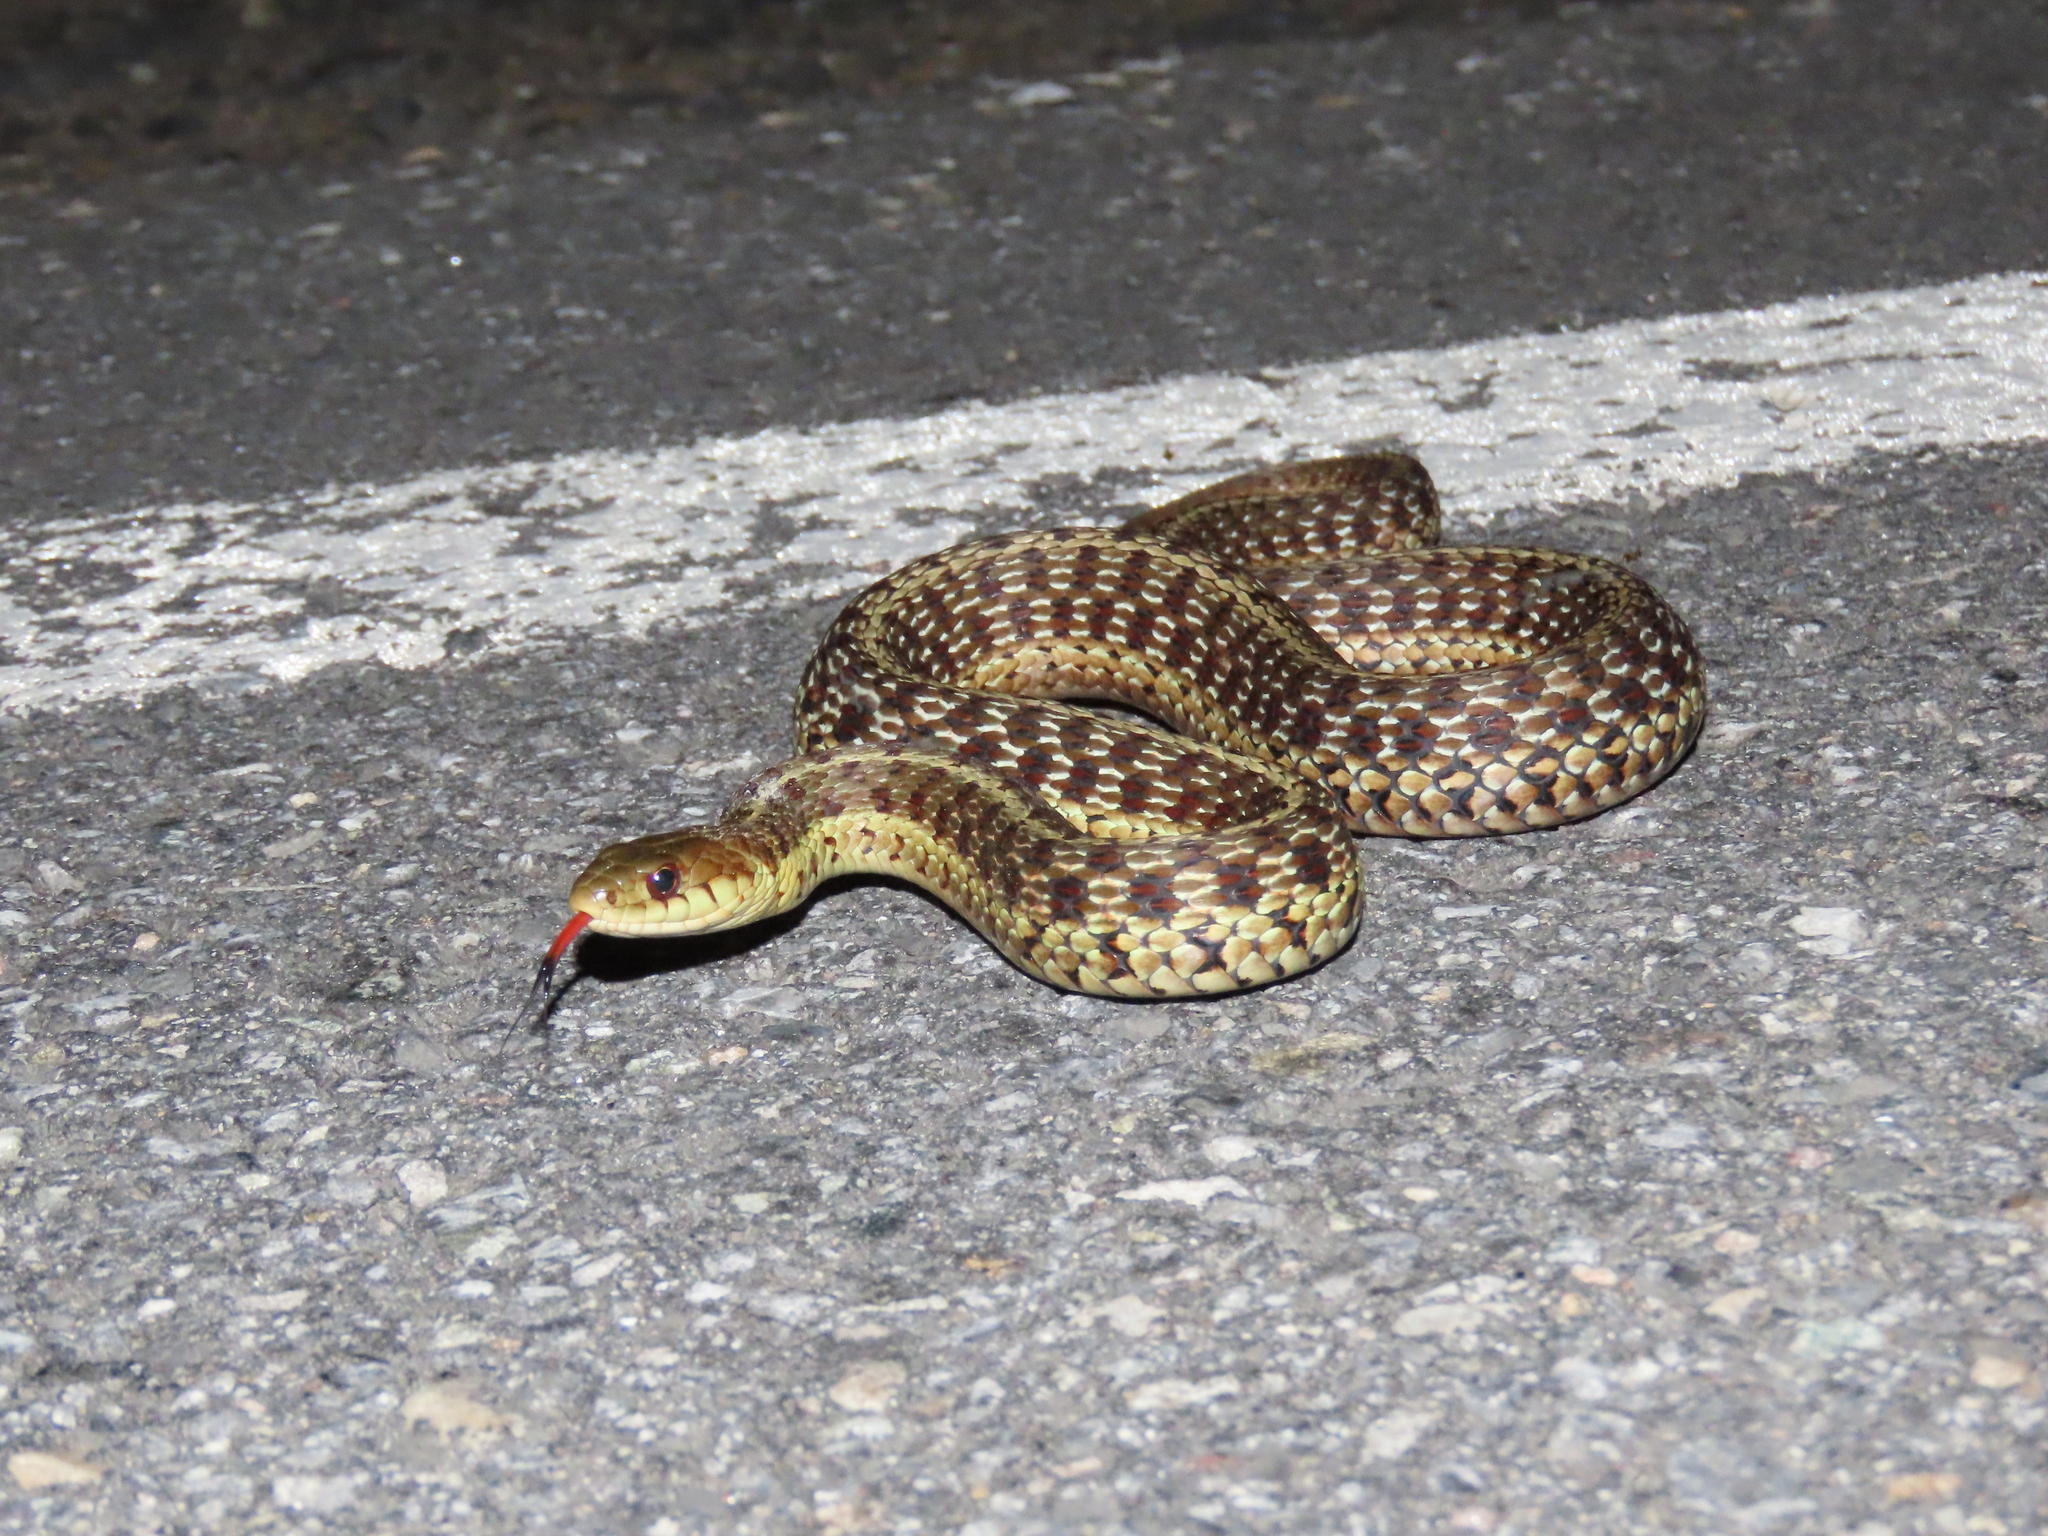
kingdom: Animalia
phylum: Chordata
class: Squamata
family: Colubridae
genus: Thamnophis
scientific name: Thamnophis sirtalis
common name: Common garter snake
